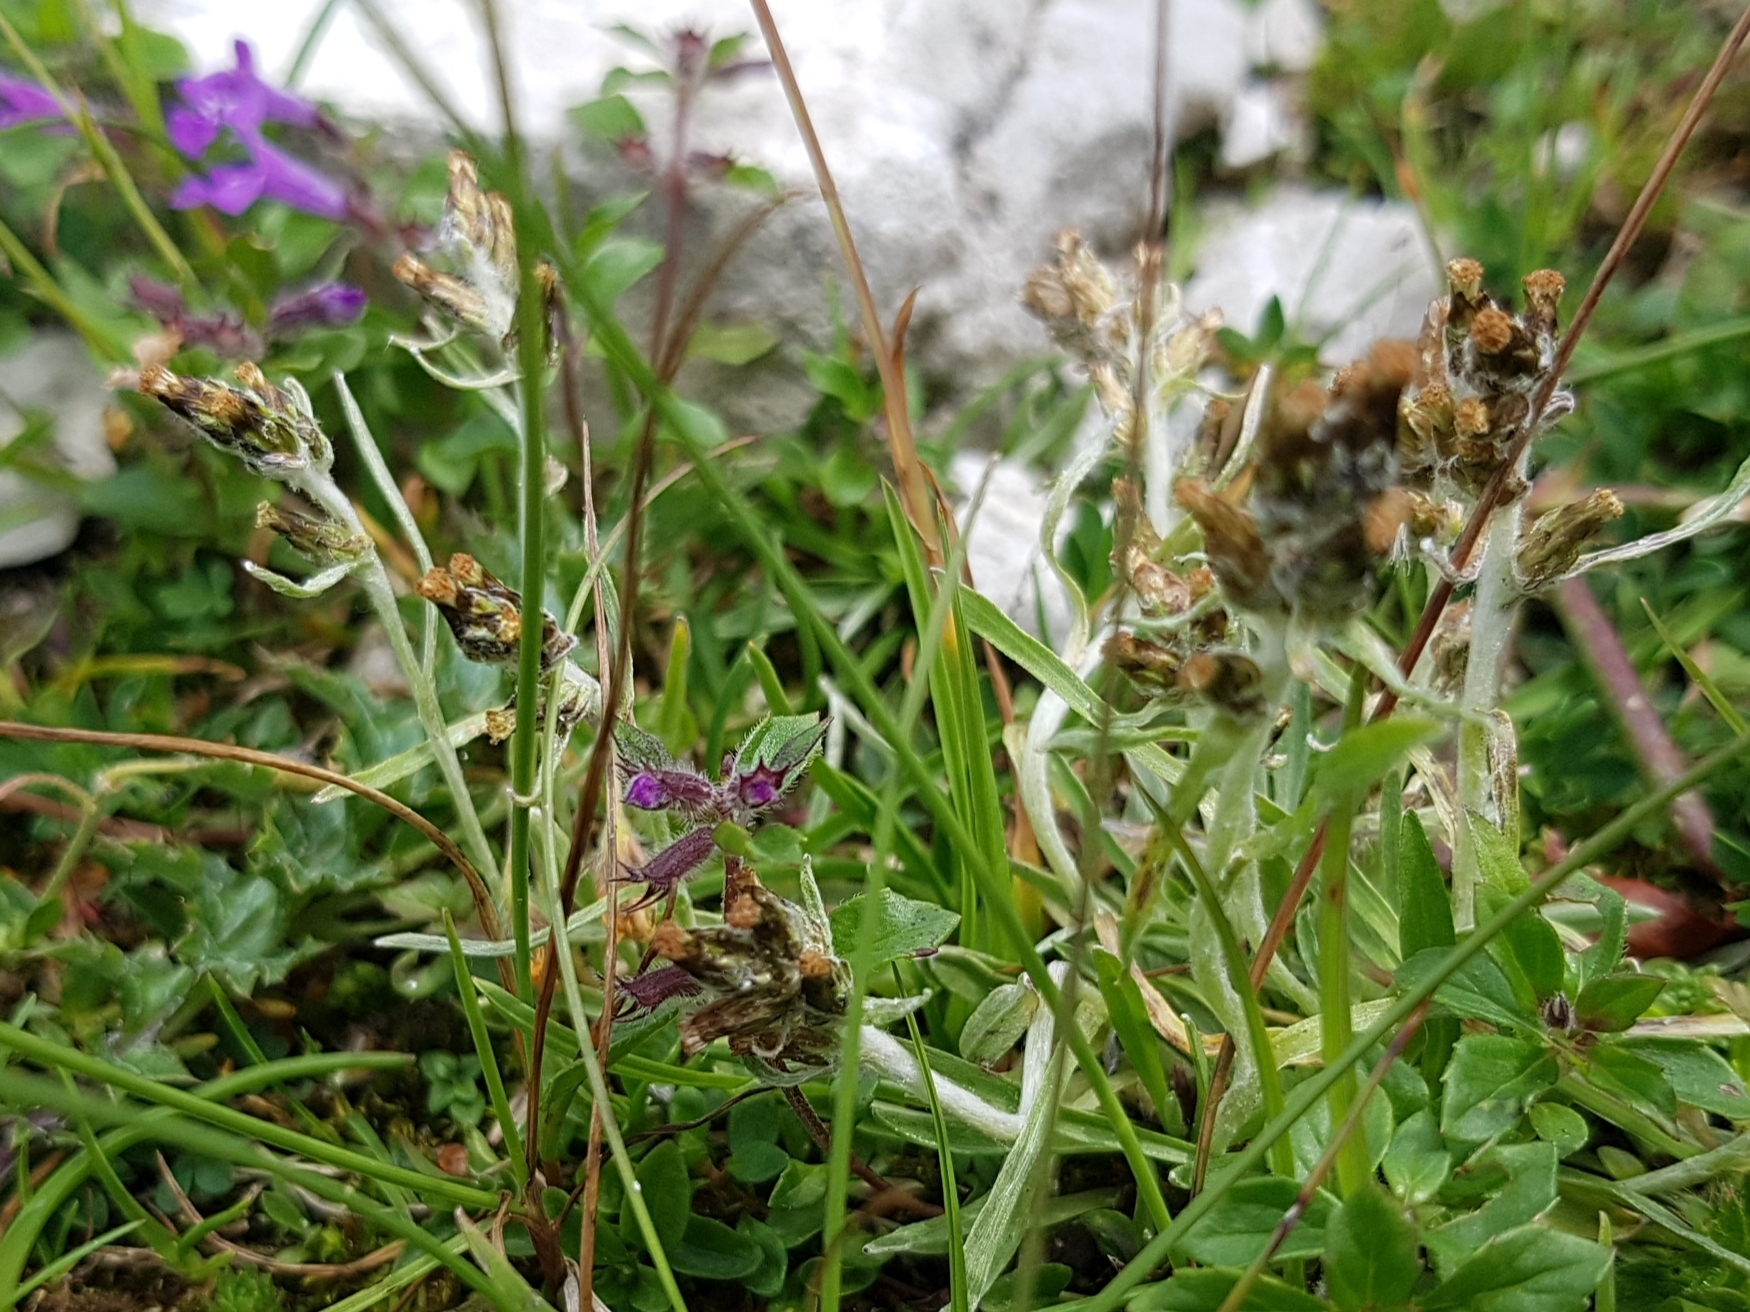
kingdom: Plantae
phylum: Tracheophyta
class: Magnoliopsida
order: Asterales
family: Asteraceae
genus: Omalotheca
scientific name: Omalotheca hoppeana
